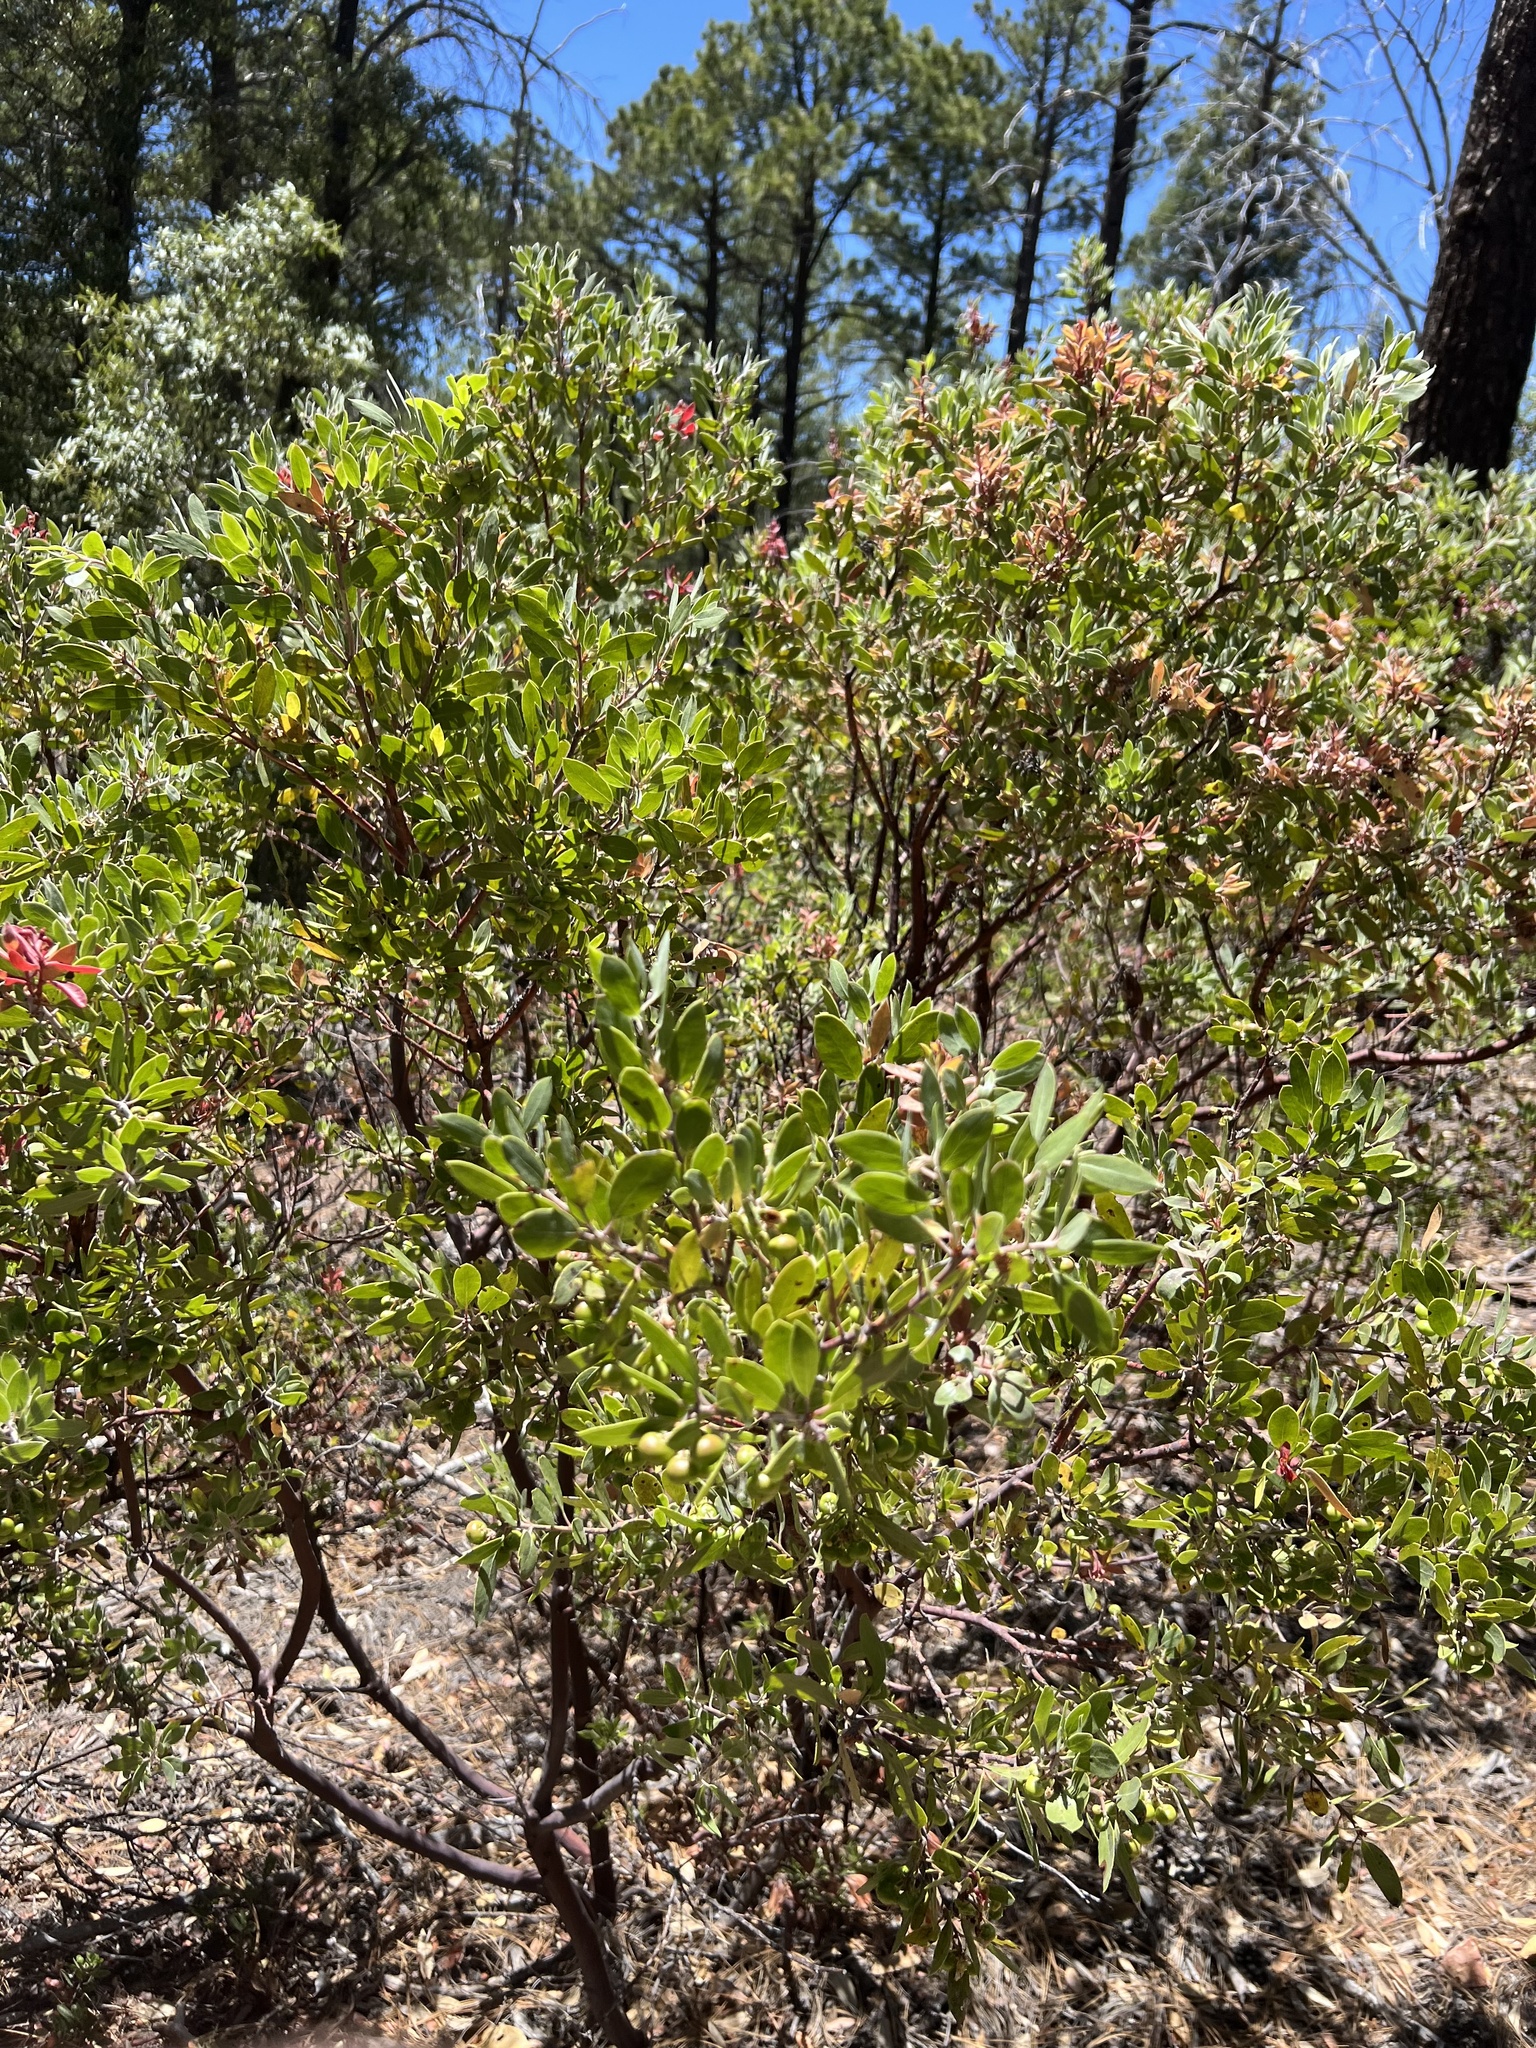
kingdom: Plantae
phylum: Tracheophyta
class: Magnoliopsida
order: Ericales
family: Ericaceae
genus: Arctostaphylos
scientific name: Arctostaphylos pungens
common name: Mexican manzanita
